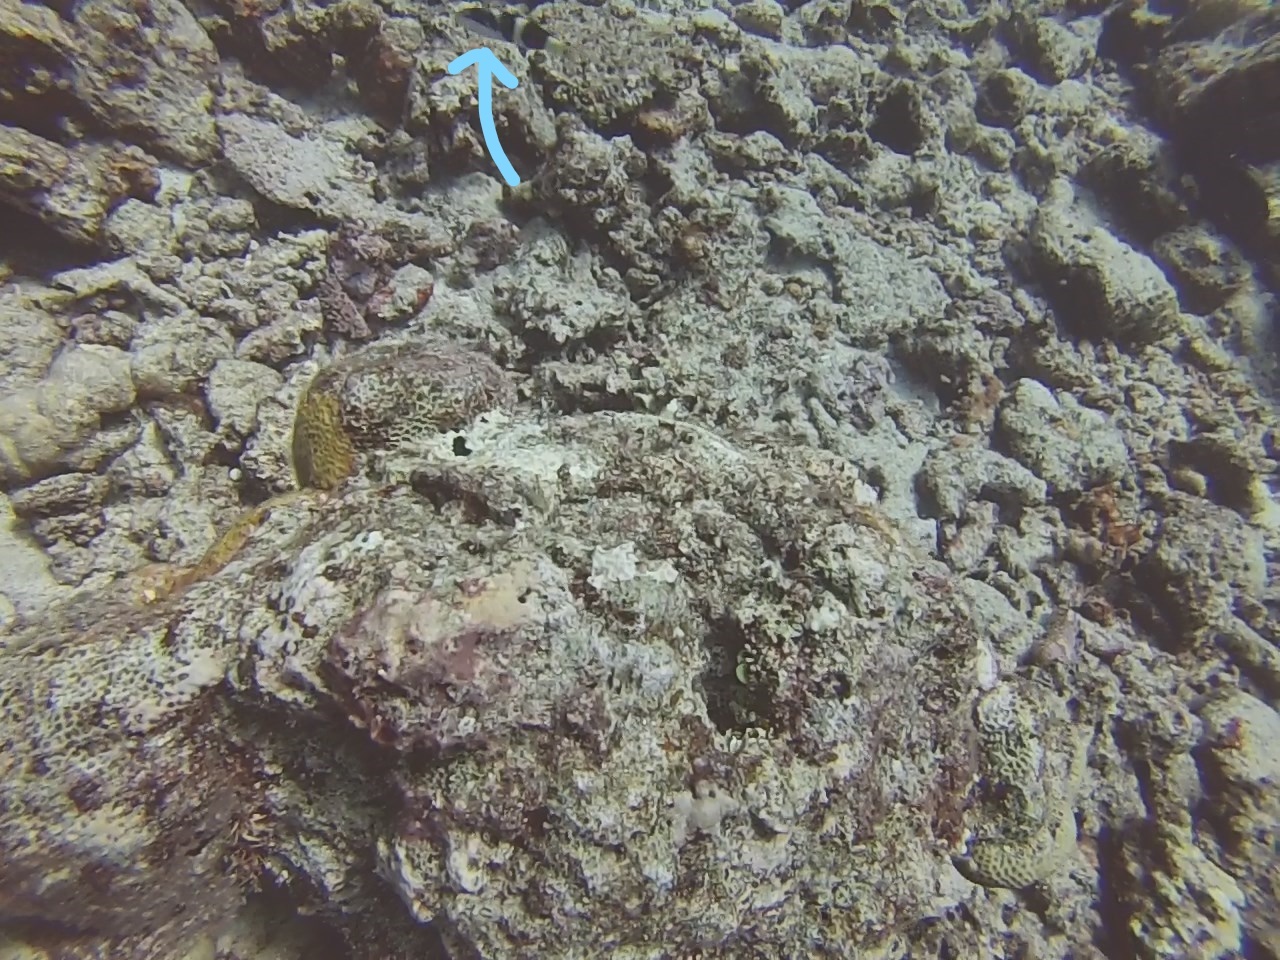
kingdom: Animalia
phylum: Chordata
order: Perciformes
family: Labridae
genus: Thalassoma
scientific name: Thalassoma nigrofasciatum
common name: Black-barred wrasse
